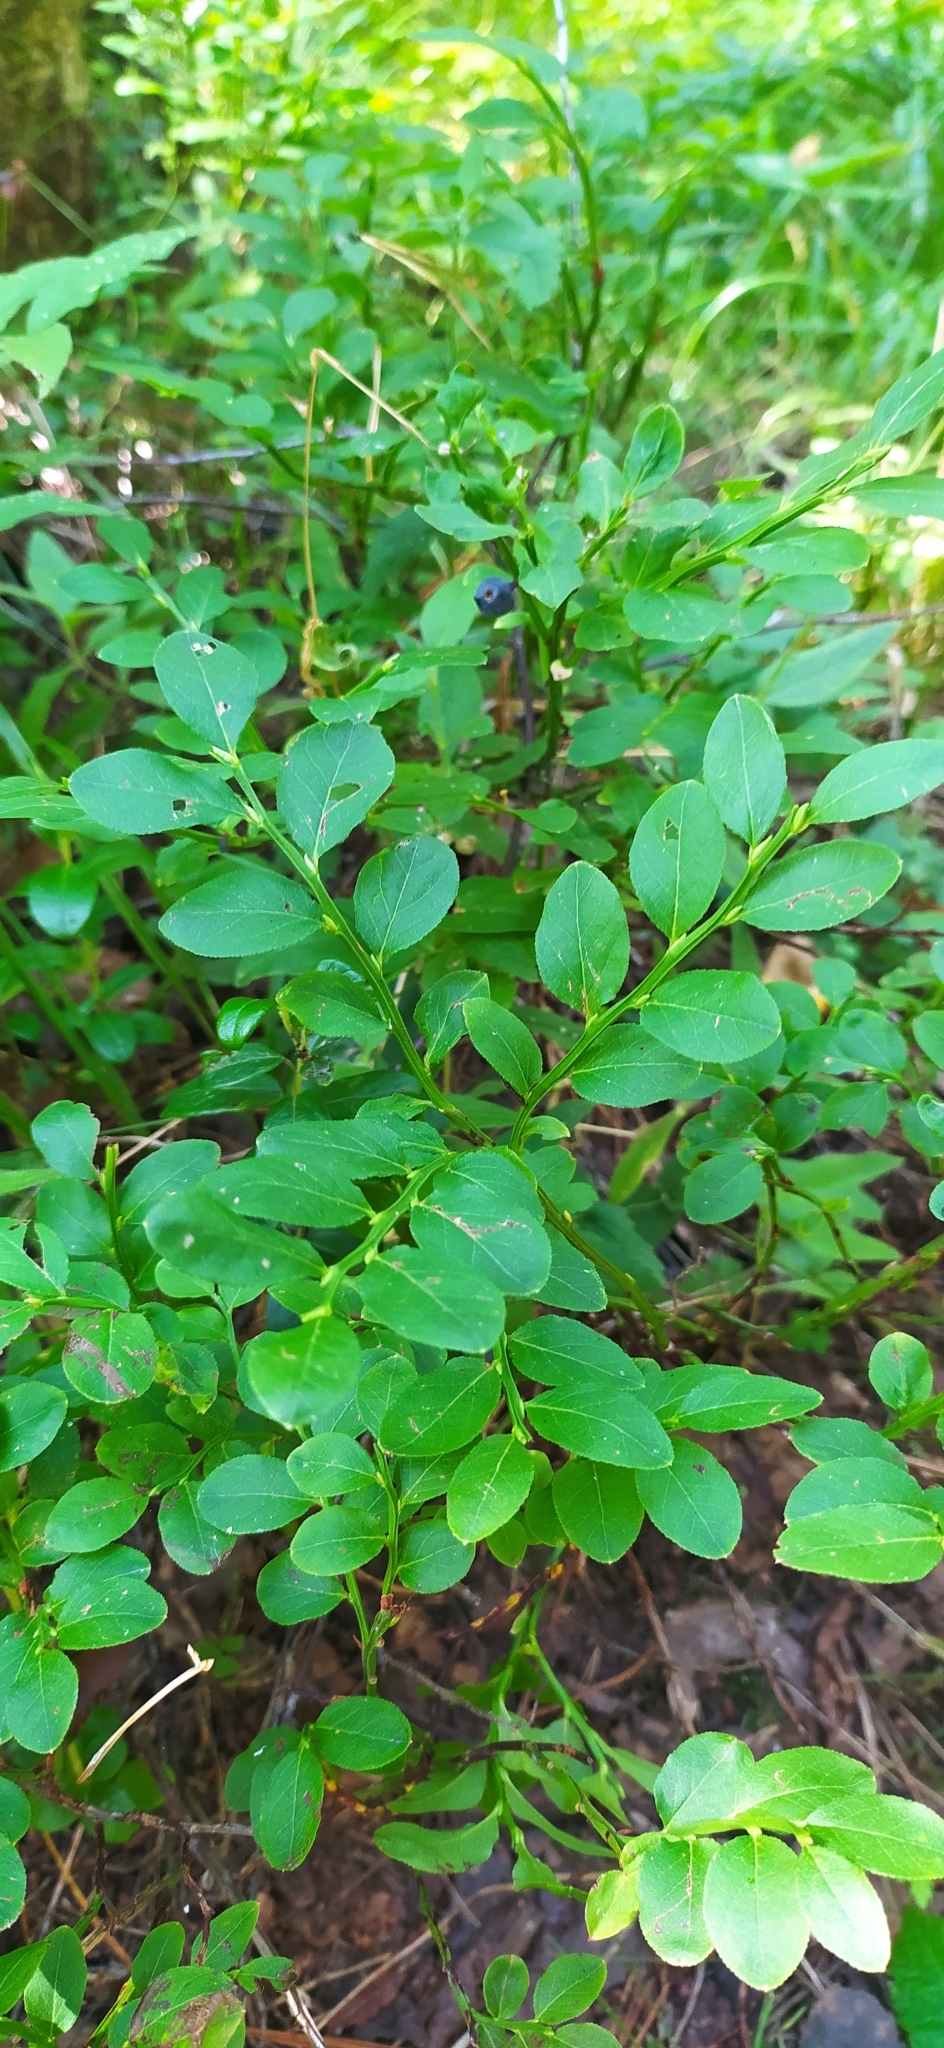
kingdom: Plantae
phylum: Tracheophyta
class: Magnoliopsida
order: Ericales
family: Ericaceae
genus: Vaccinium
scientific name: Vaccinium myrtillus
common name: Bilberry
